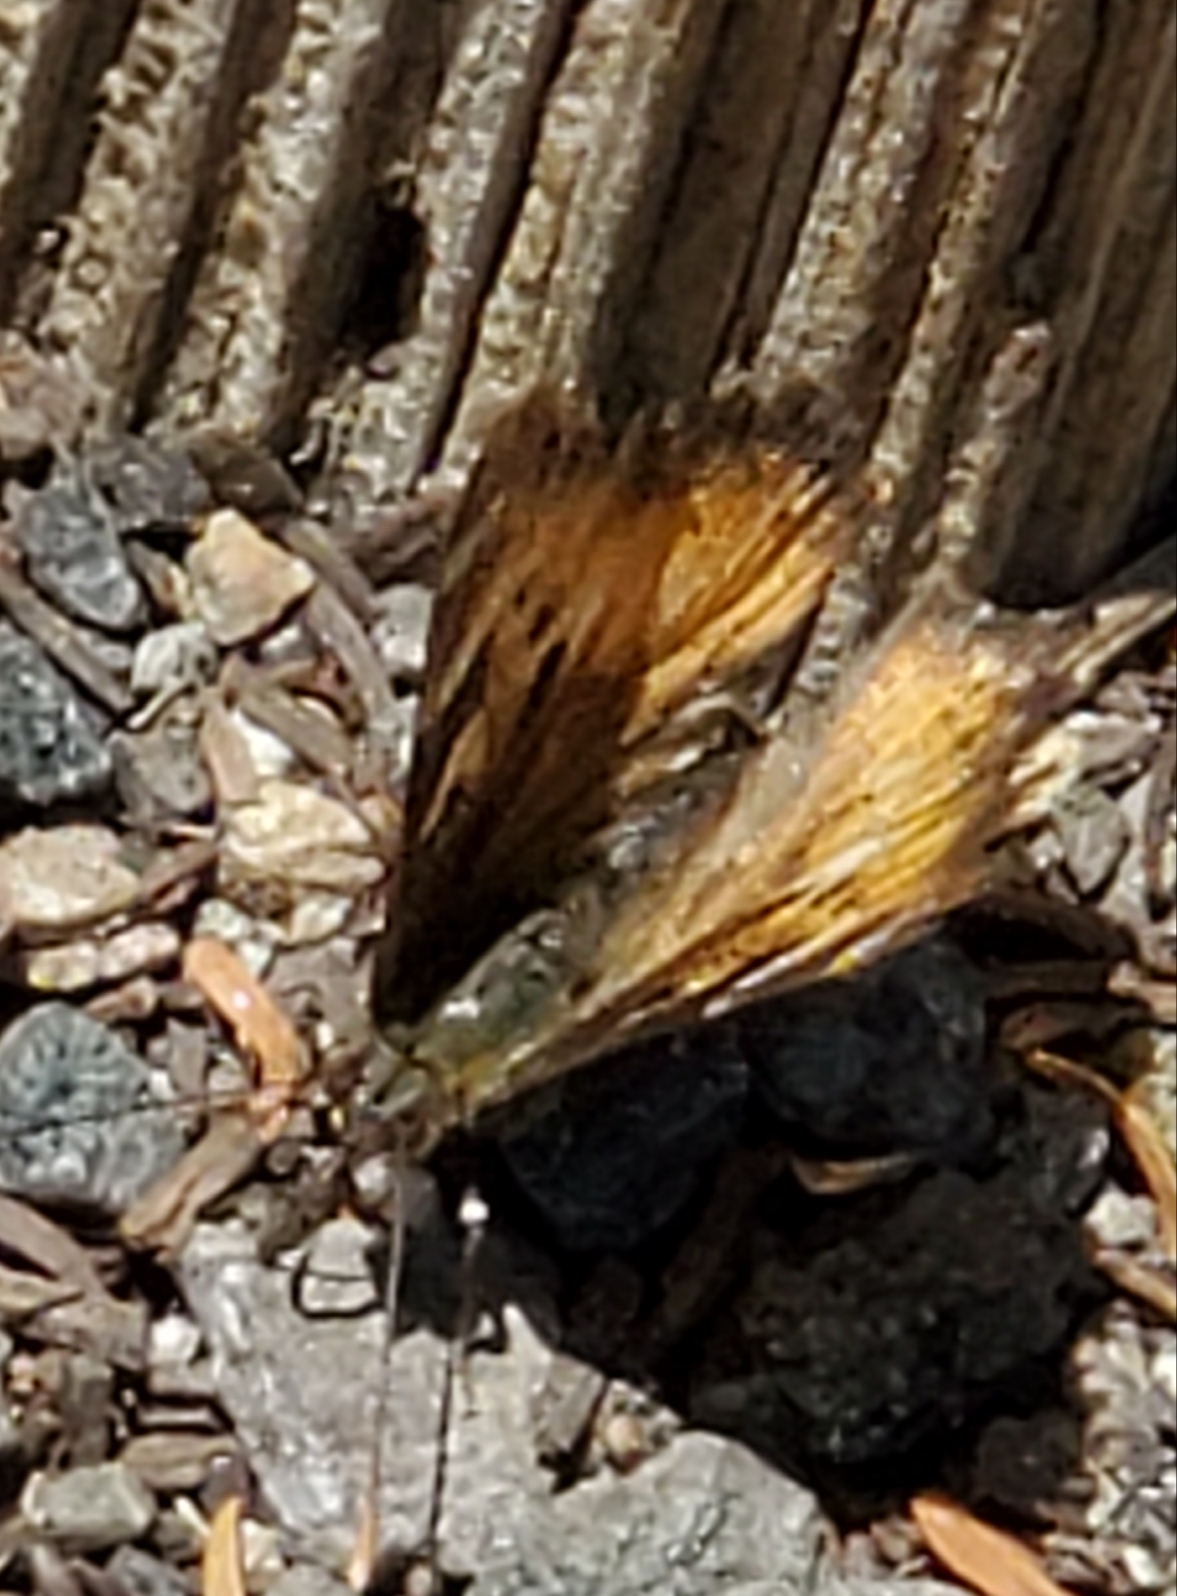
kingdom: Animalia
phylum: Arthropoda
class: Insecta
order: Lepidoptera
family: Nymphalidae
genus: Nymphalis
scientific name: Nymphalis californica
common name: California tortoiseshell
